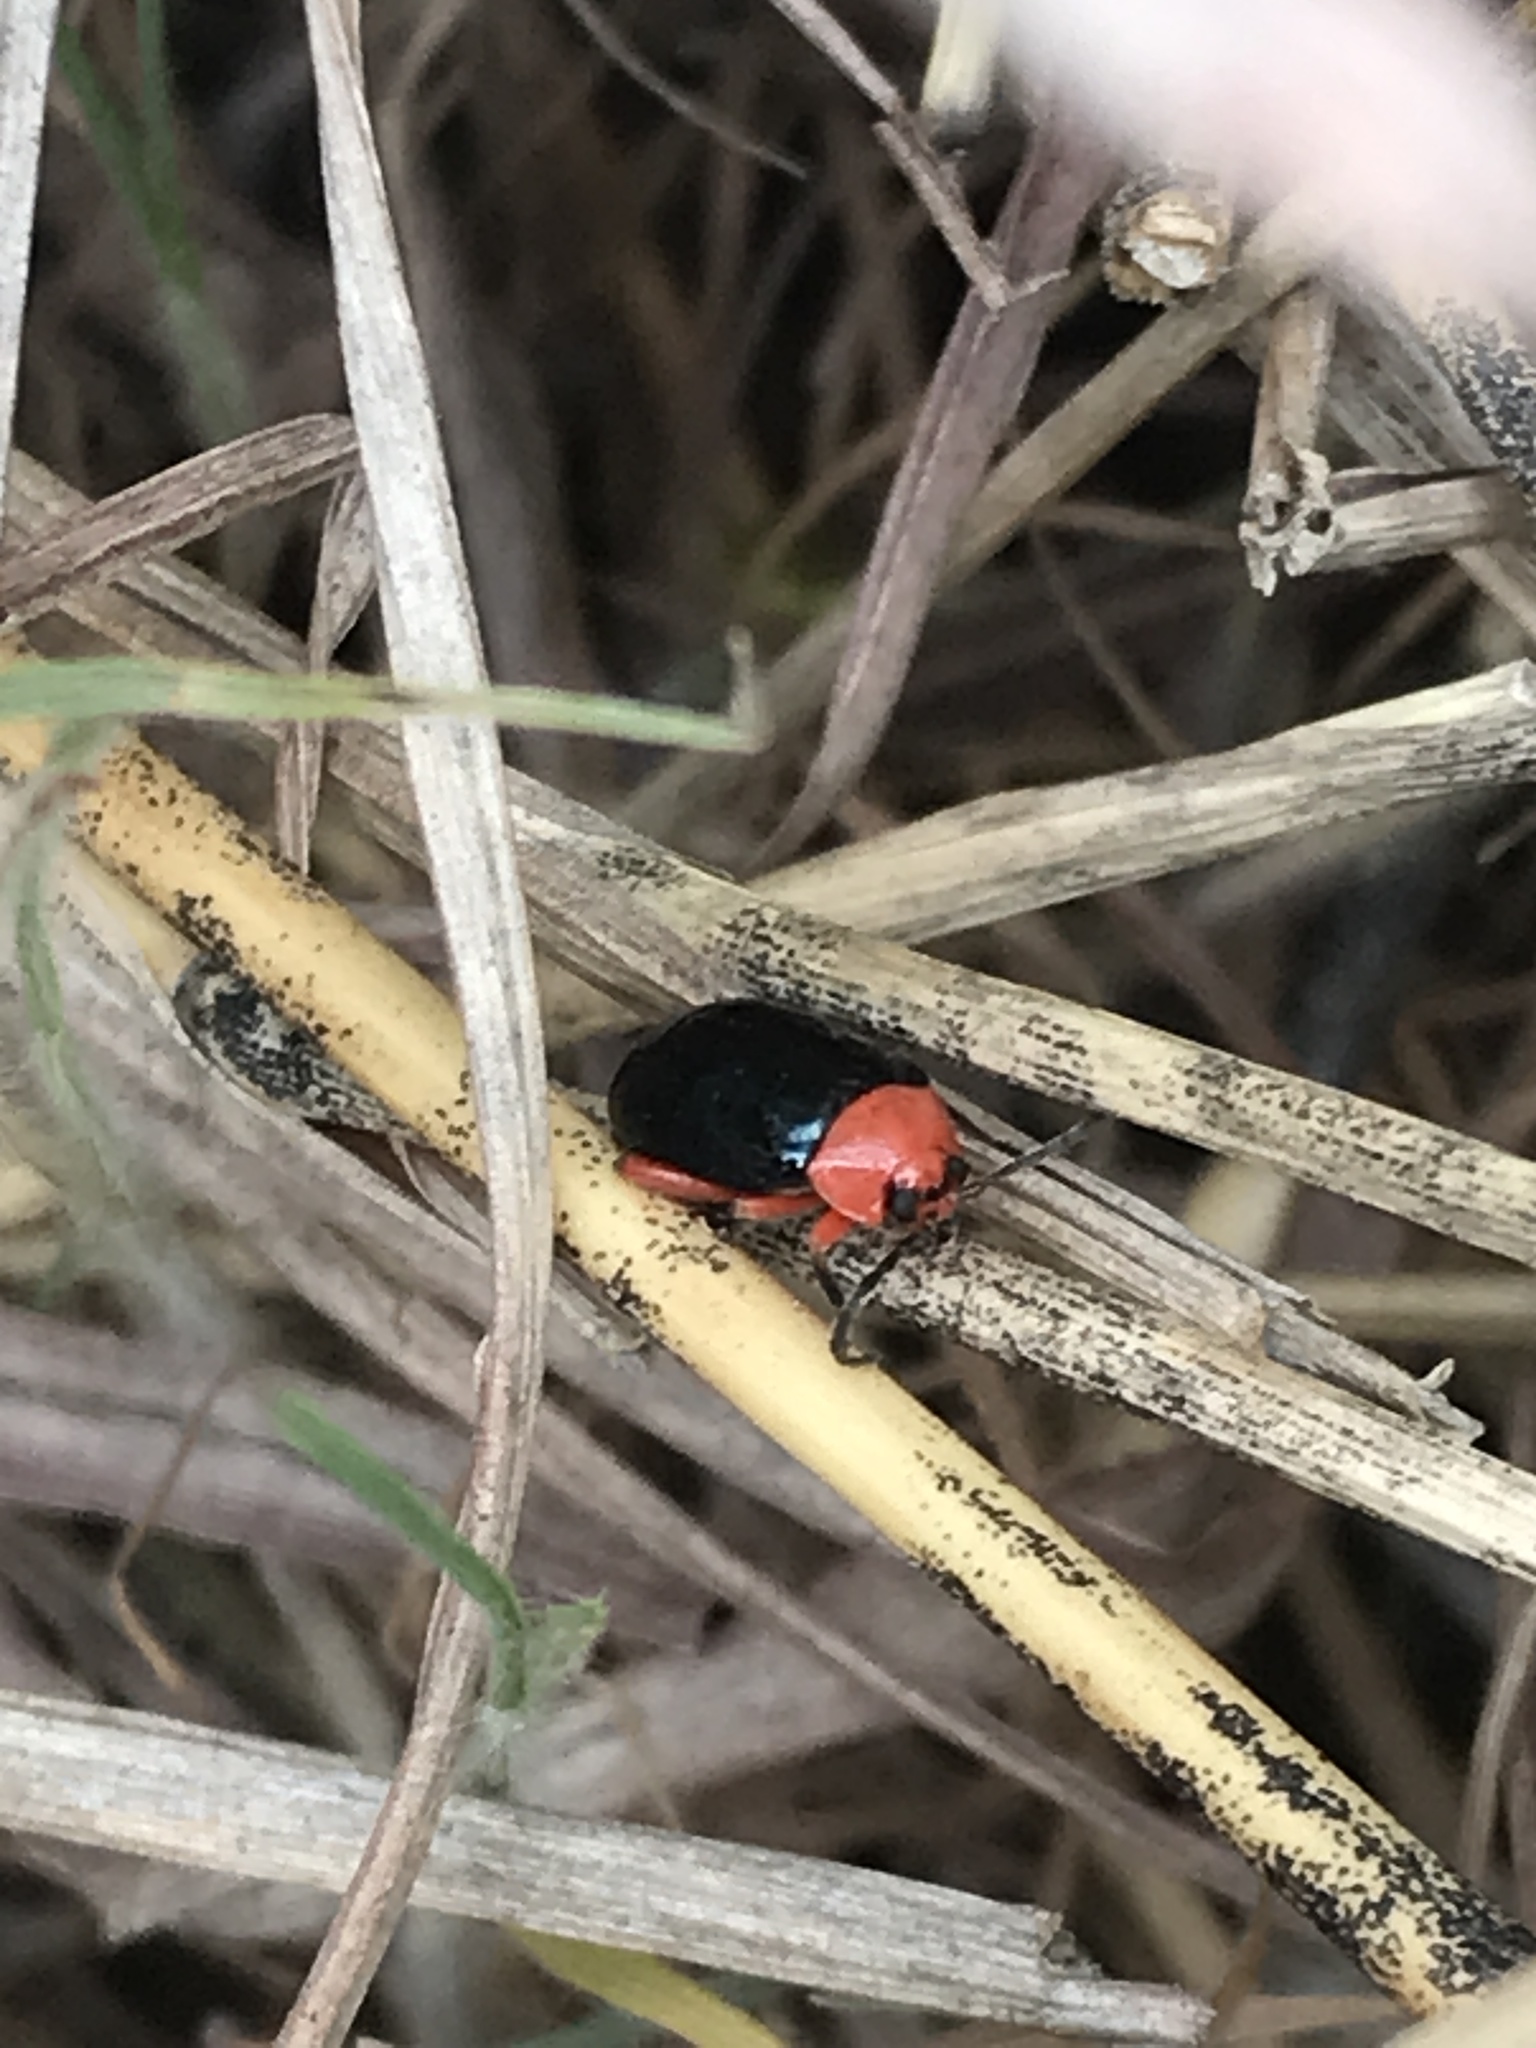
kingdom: Animalia
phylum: Arthropoda
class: Insecta
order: Coleoptera
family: Chrysomelidae
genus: Asphaera
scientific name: Asphaera lustrans
